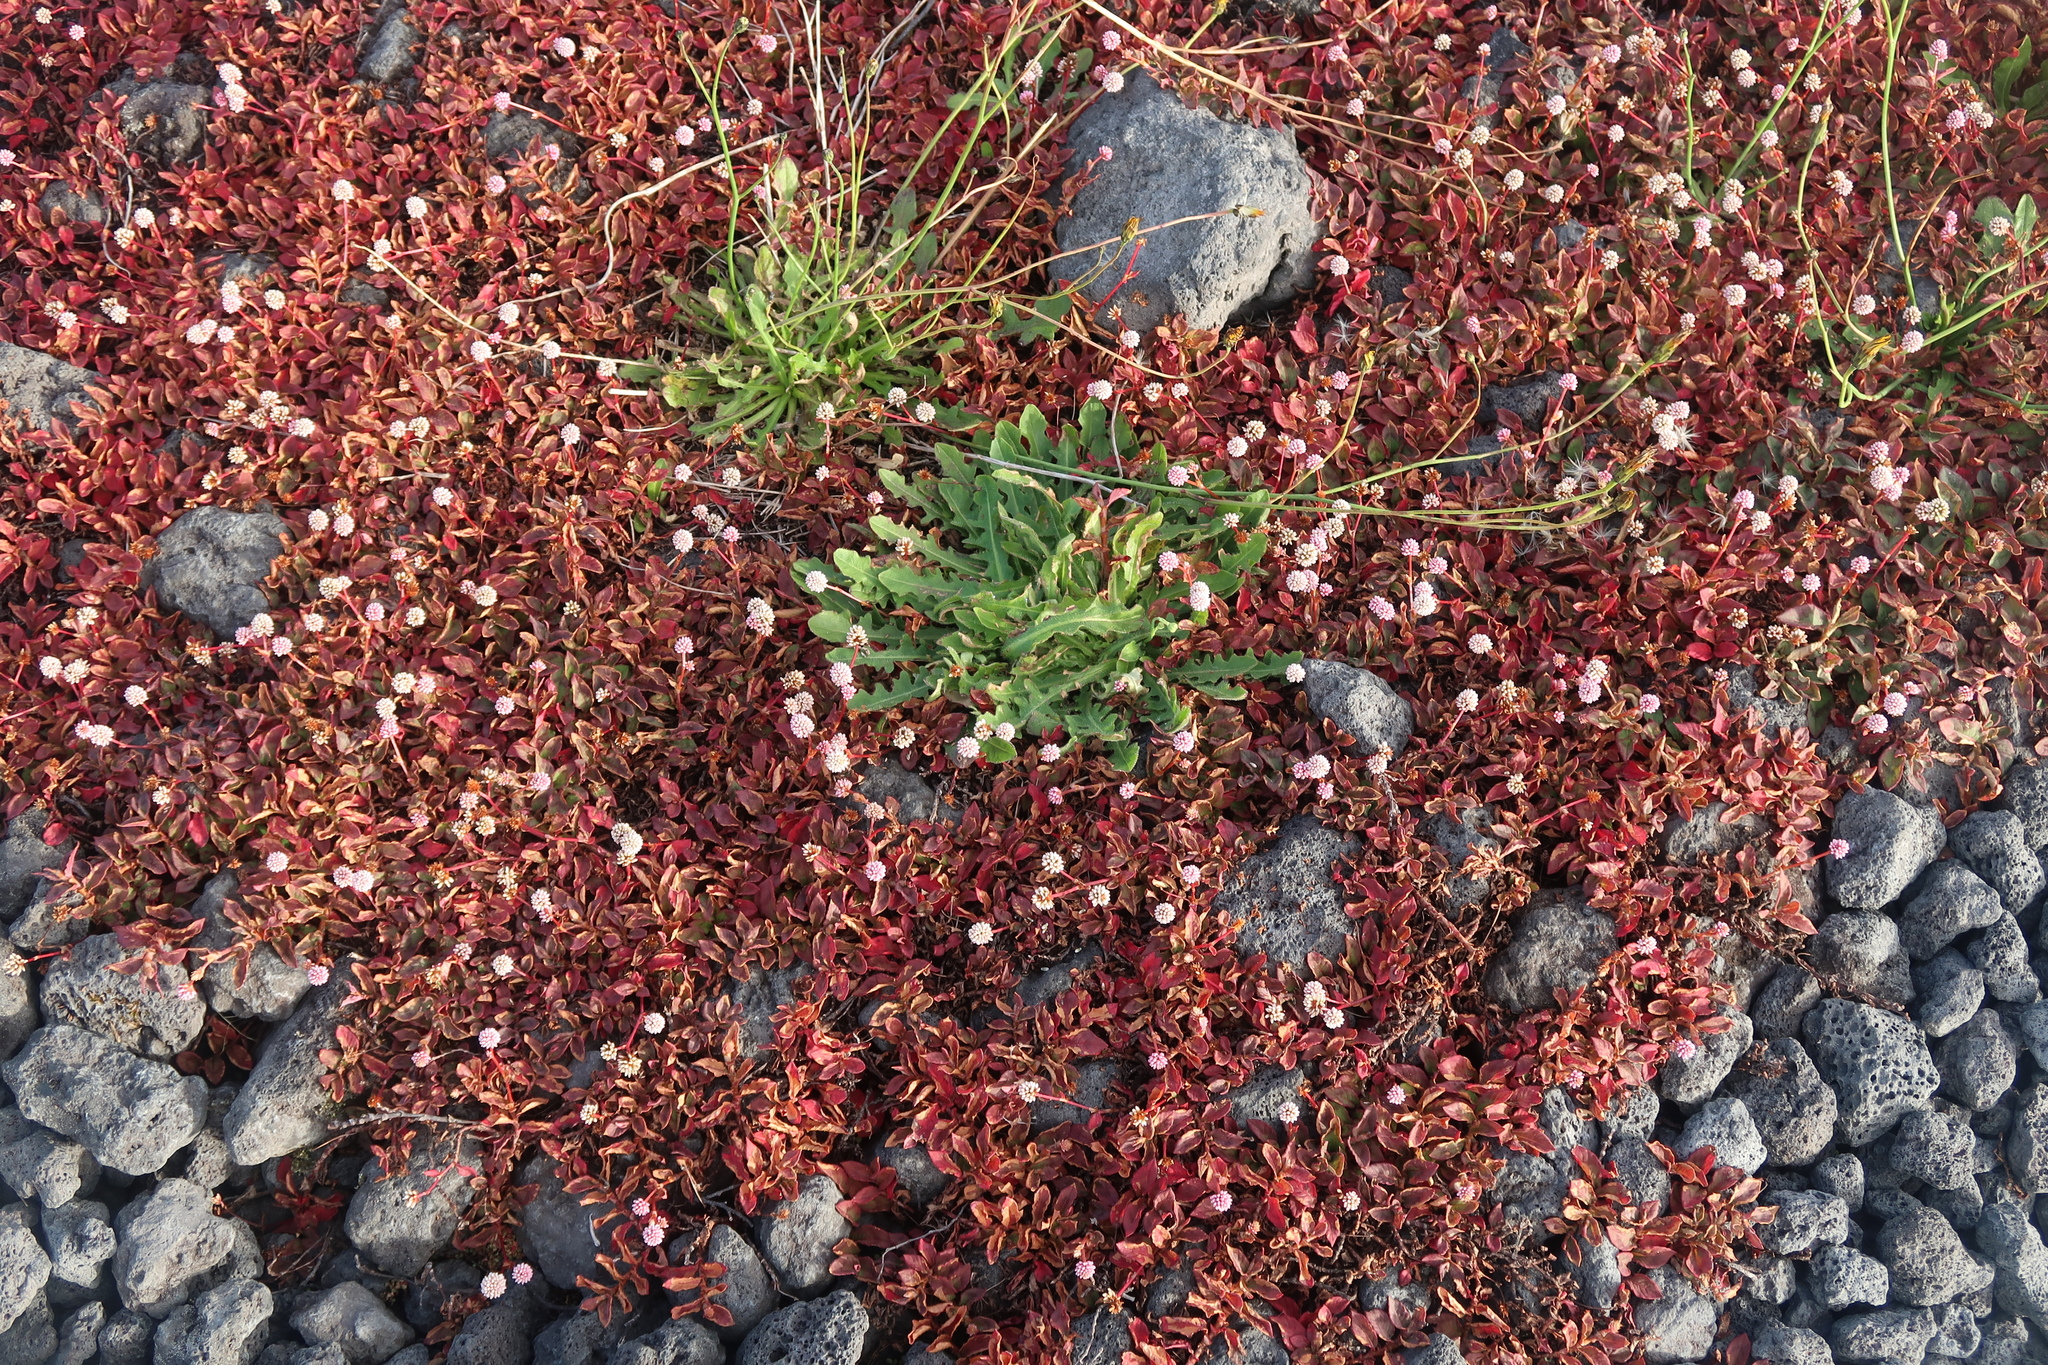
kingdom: Plantae
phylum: Tracheophyta
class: Magnoliopsida
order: Caryophyllales
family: Polygonaceae
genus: Persicaria
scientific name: Persicaria capitata
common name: Pinkhead smartweed
